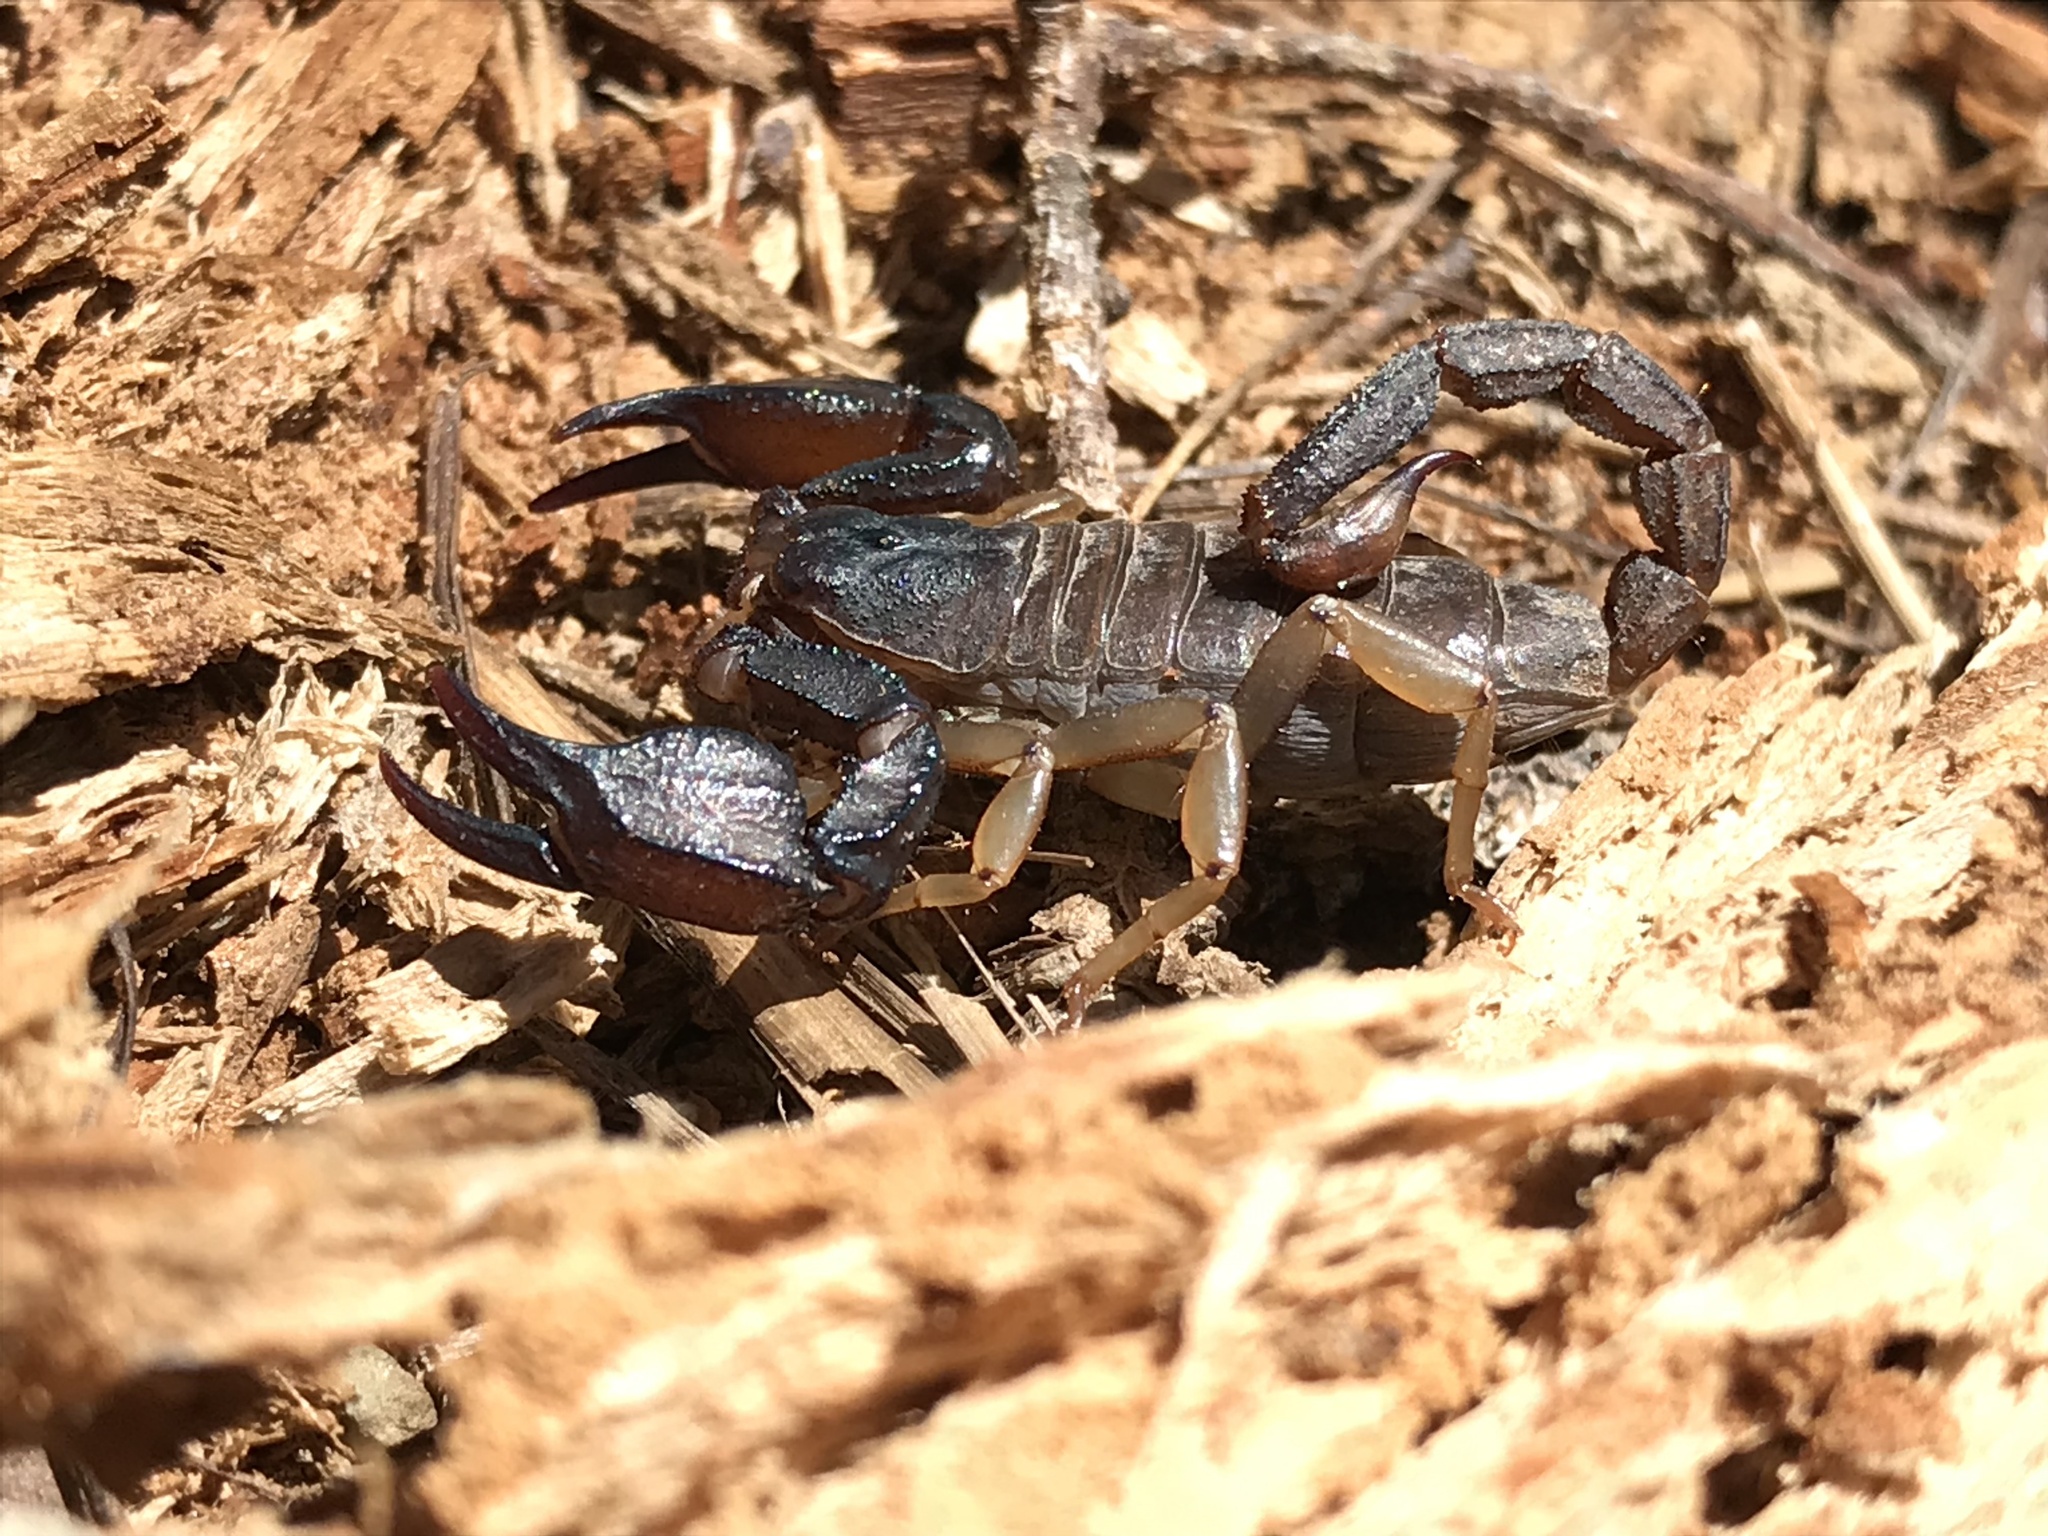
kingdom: Animalia
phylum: Arthropoda
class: Arachnida
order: Scorpiones
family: Chactidae
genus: Uroctonus
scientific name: Uroctonus mordax
